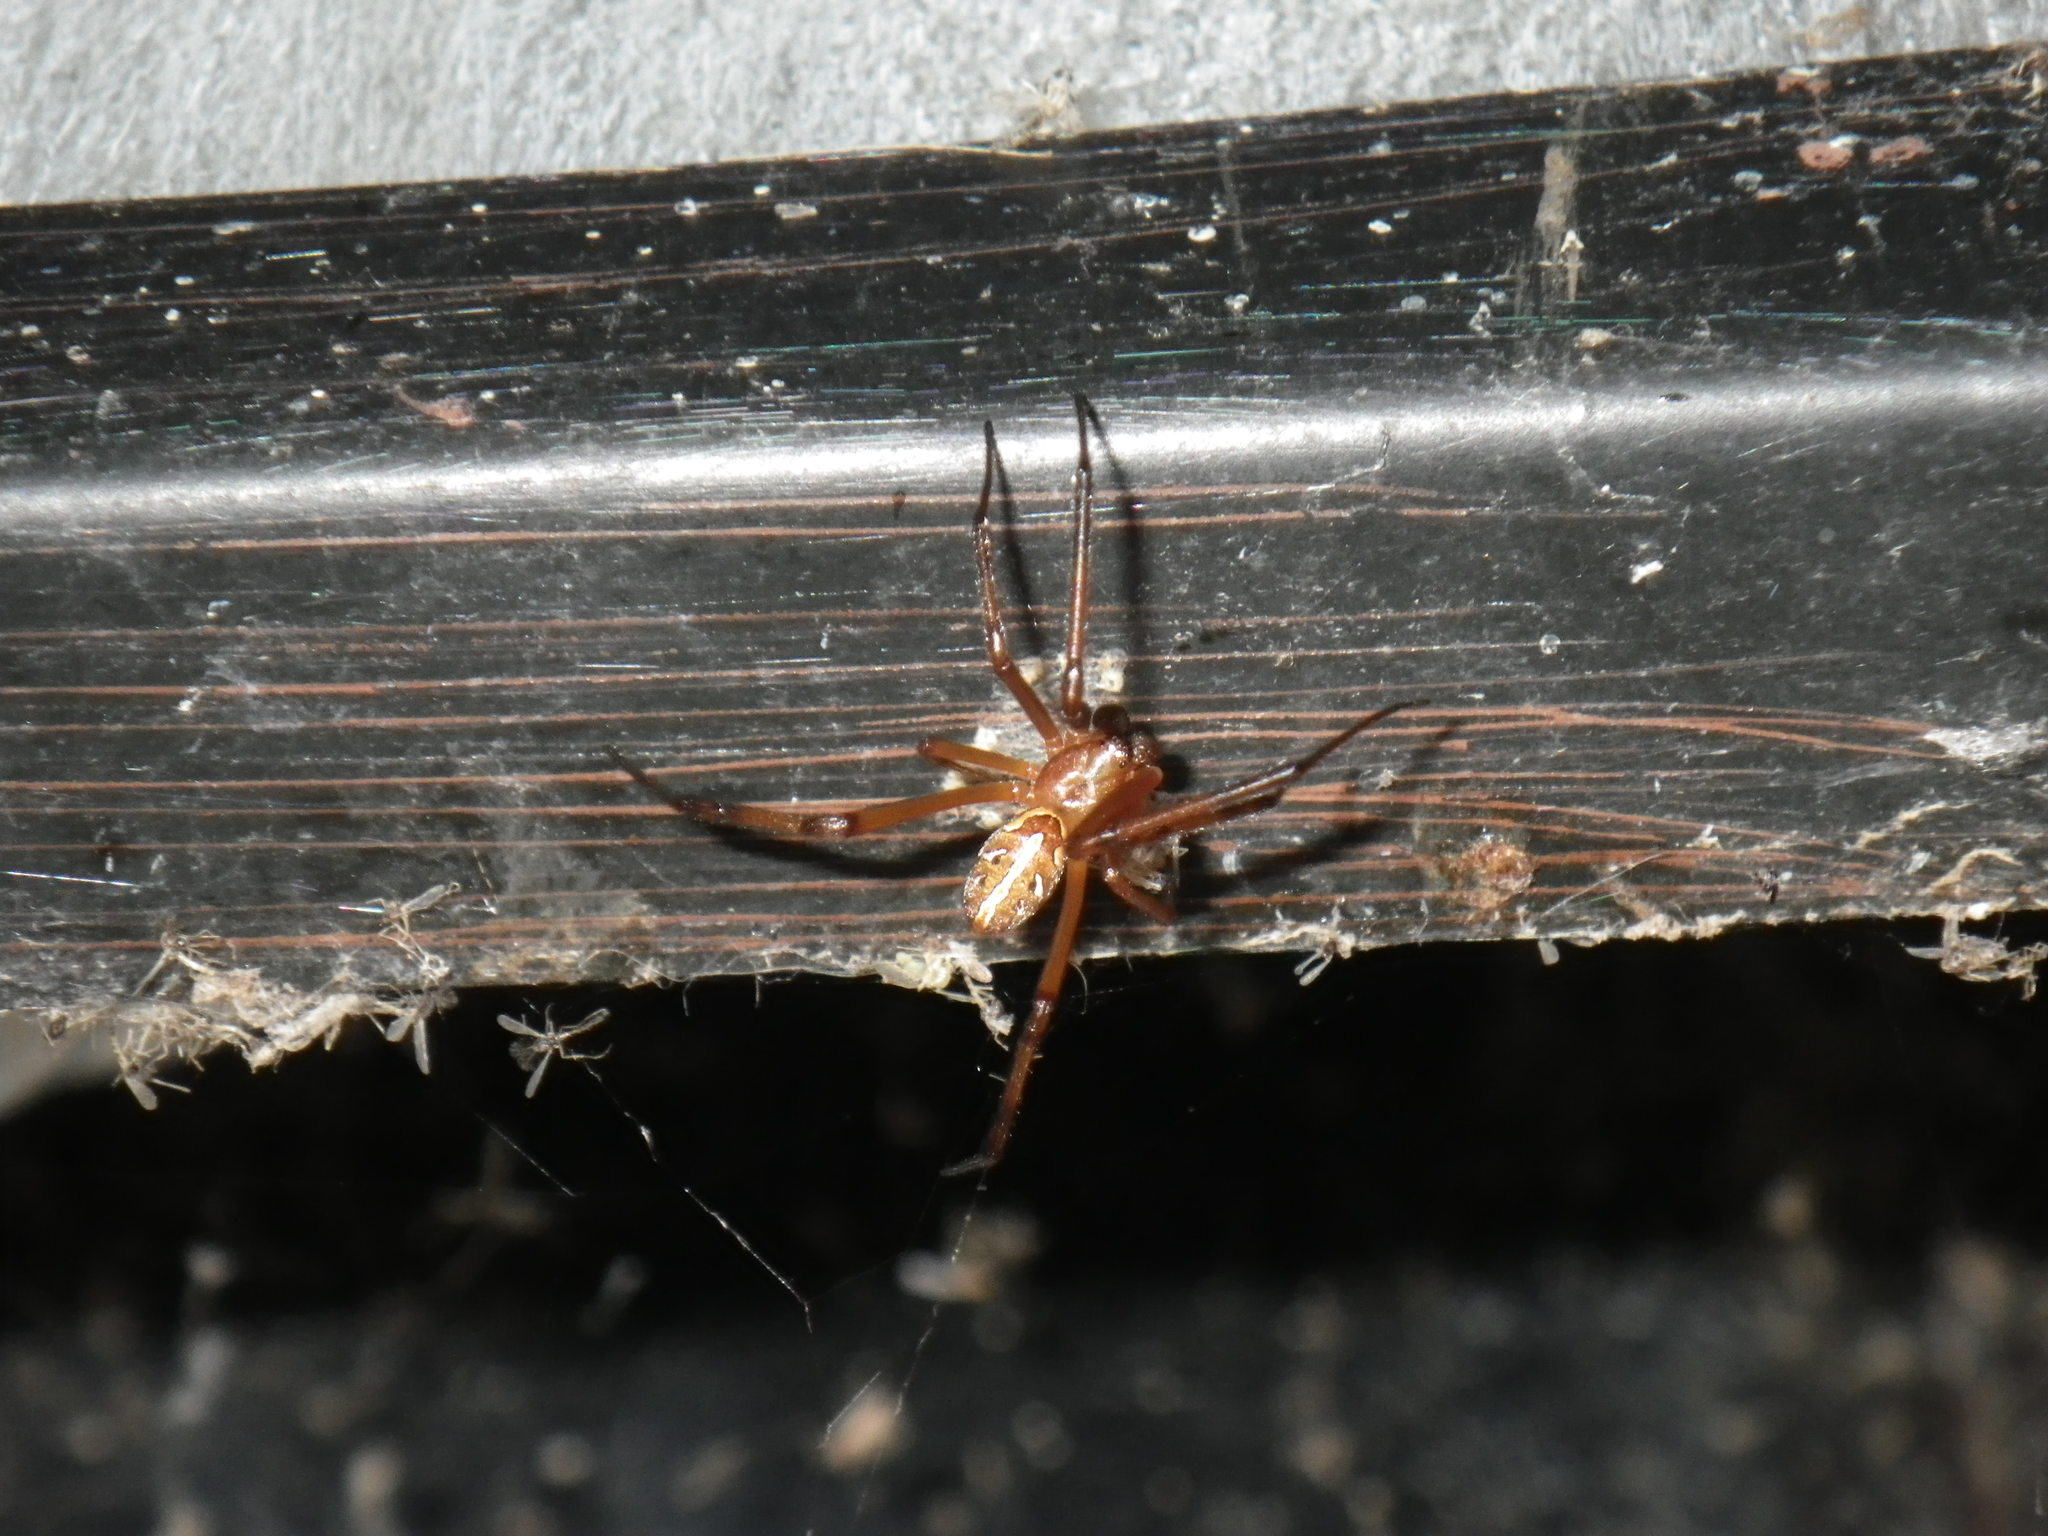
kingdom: Animalia
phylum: Arthropoda
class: Arachnida
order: Araneae
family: Theridiidae
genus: Latrodectus
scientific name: Latrodectus hesperus
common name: Western black widow
